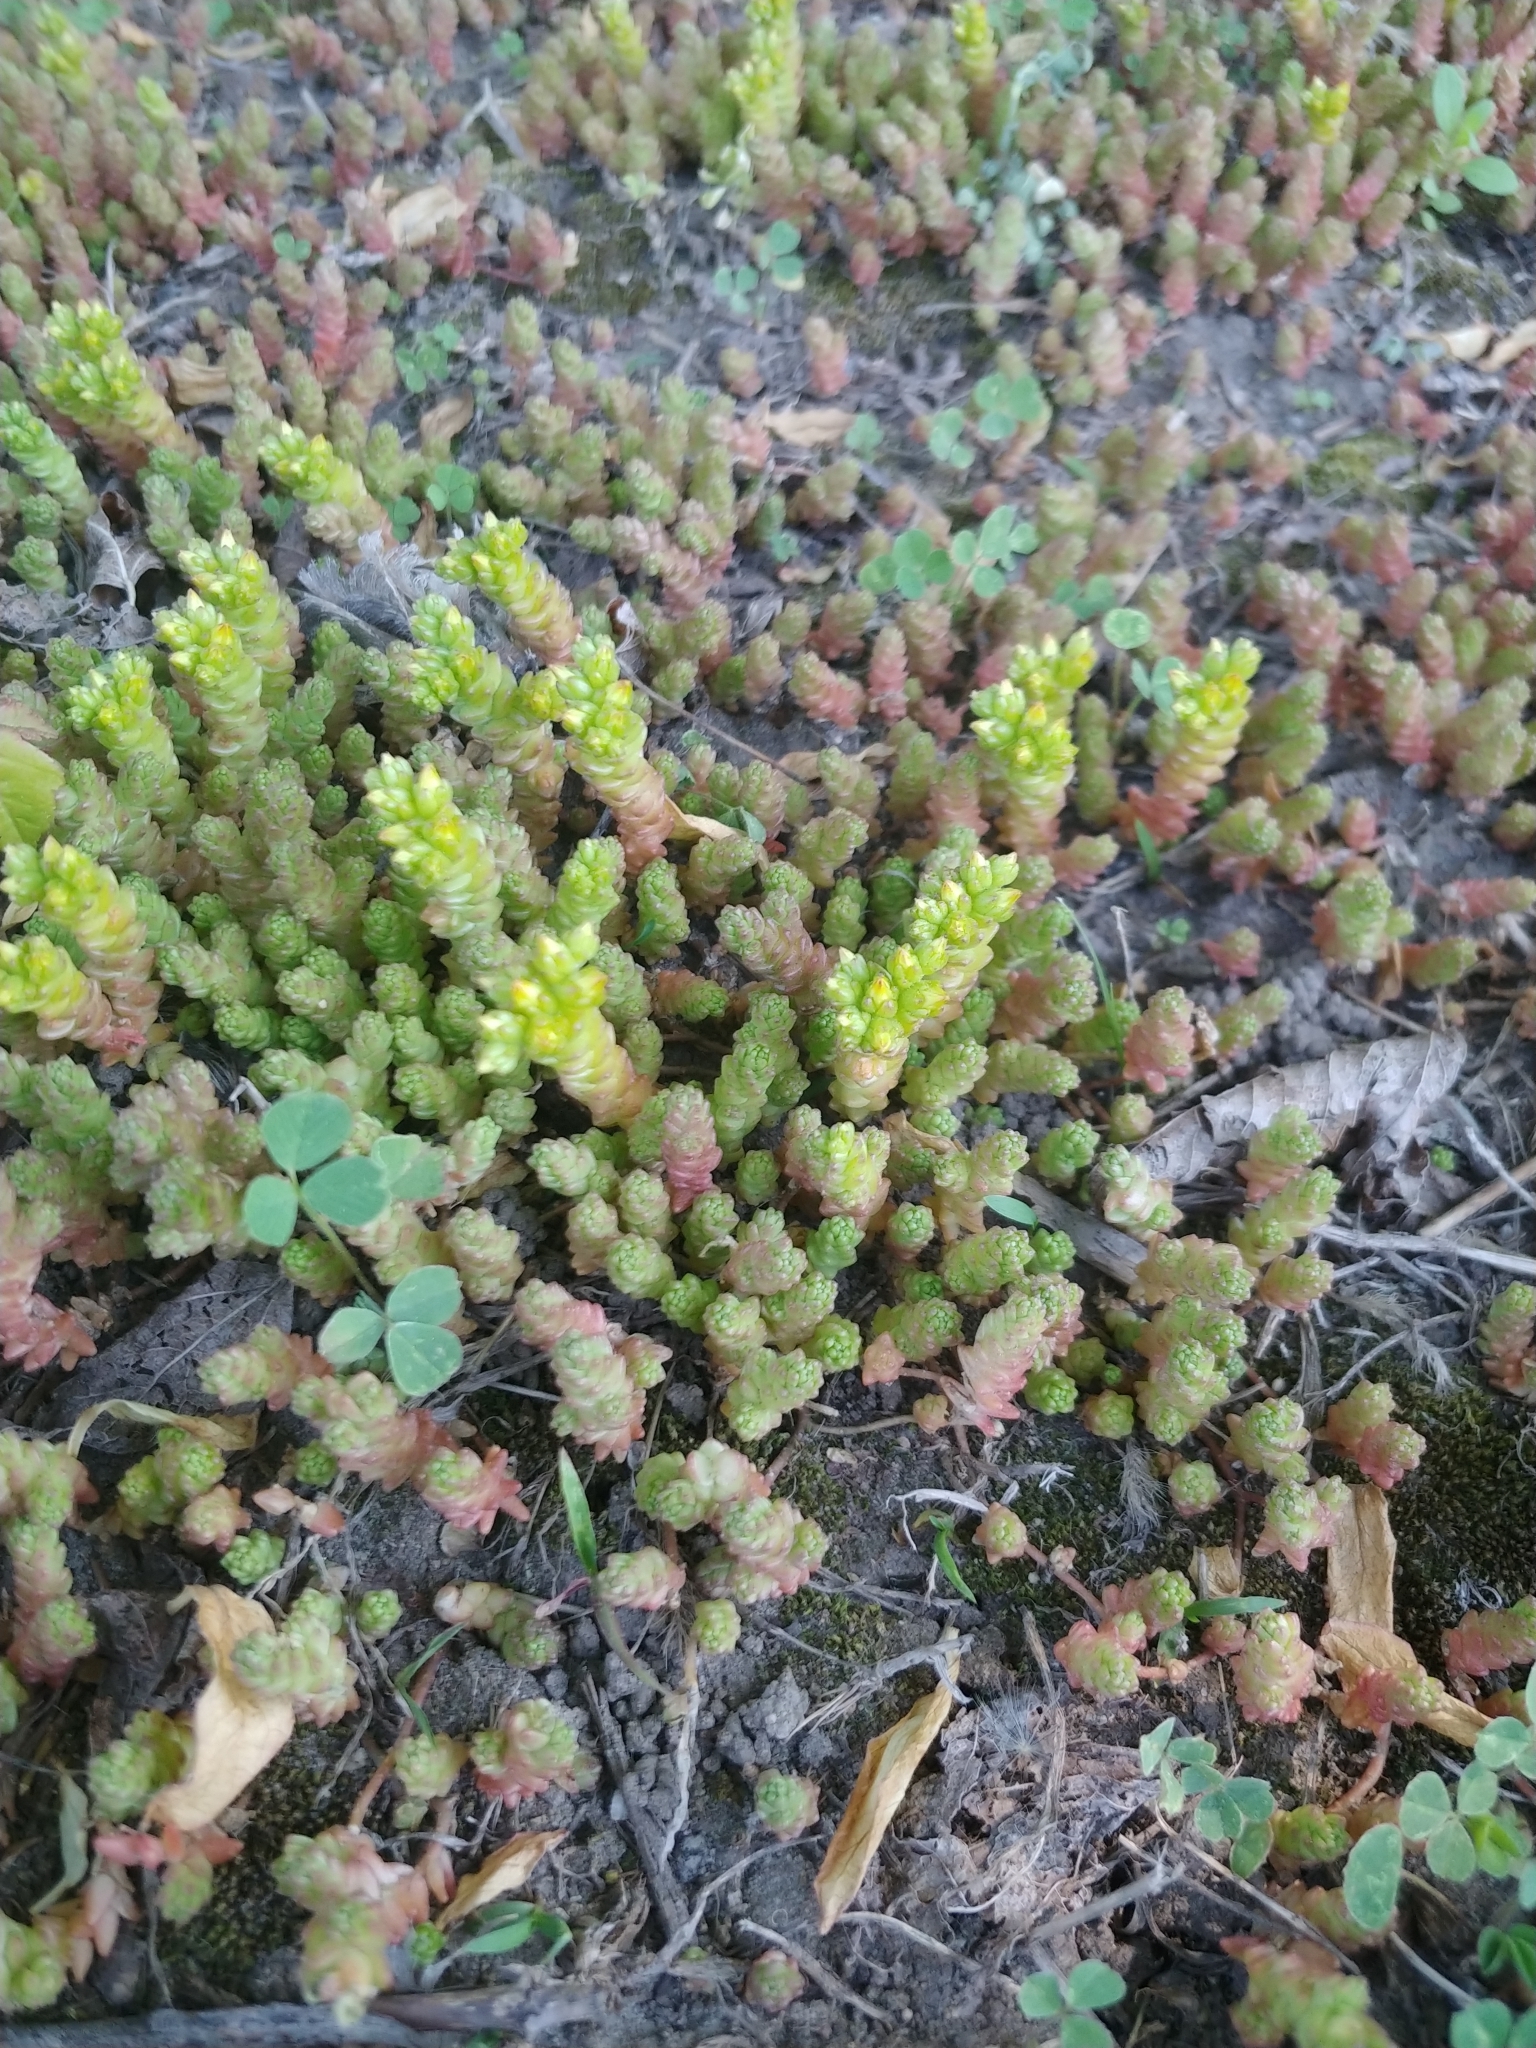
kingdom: Plantae
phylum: Tracheophyta
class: Magnoliopsida
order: Saxifragales
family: Crassulaceae
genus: Sedum
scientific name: Sedum acre
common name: Biting stonecrop
